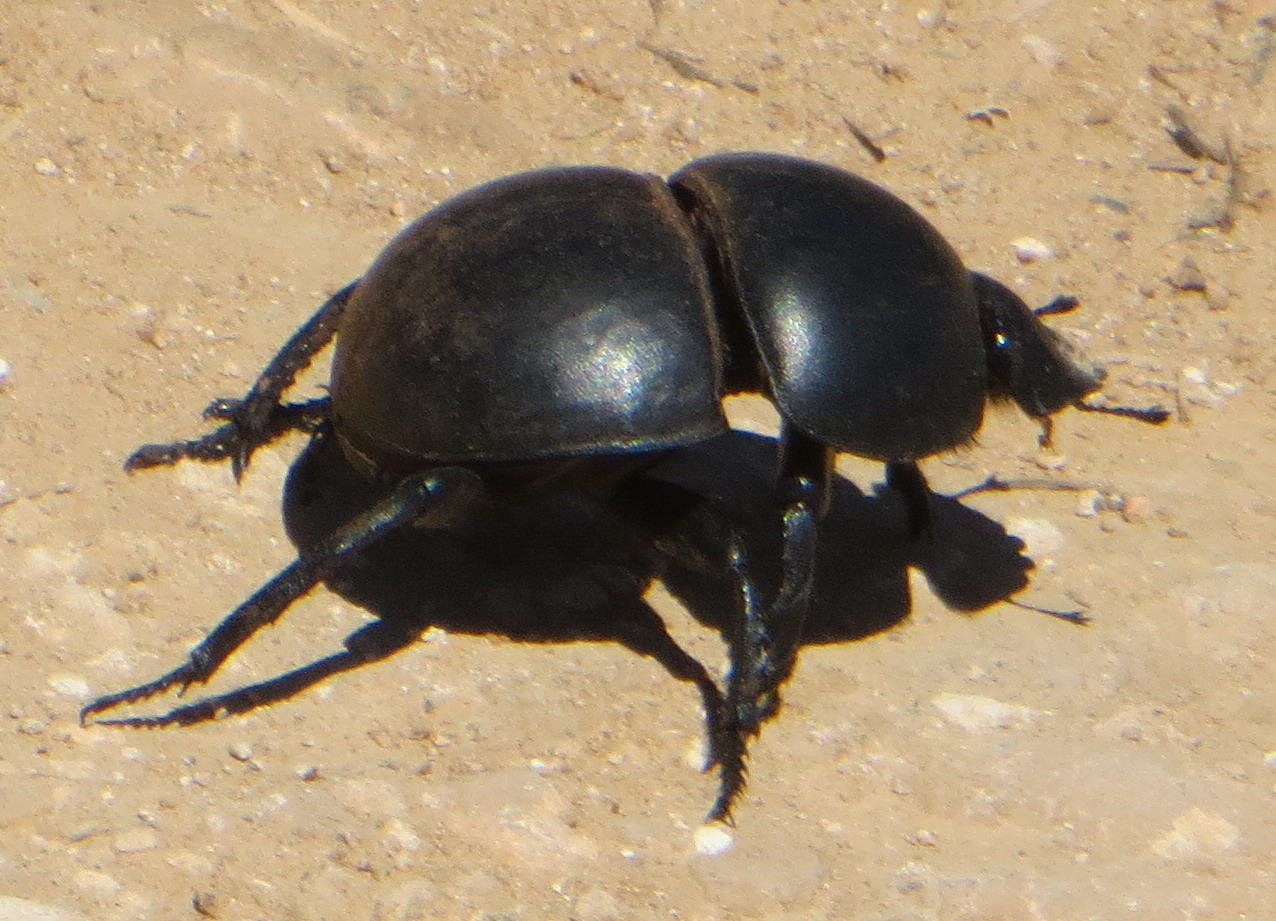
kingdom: Animalia
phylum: Arthropoda
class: Insecta
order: Coleoptera
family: Scarabaeidae
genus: Circellium
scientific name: Circellium bacchus
